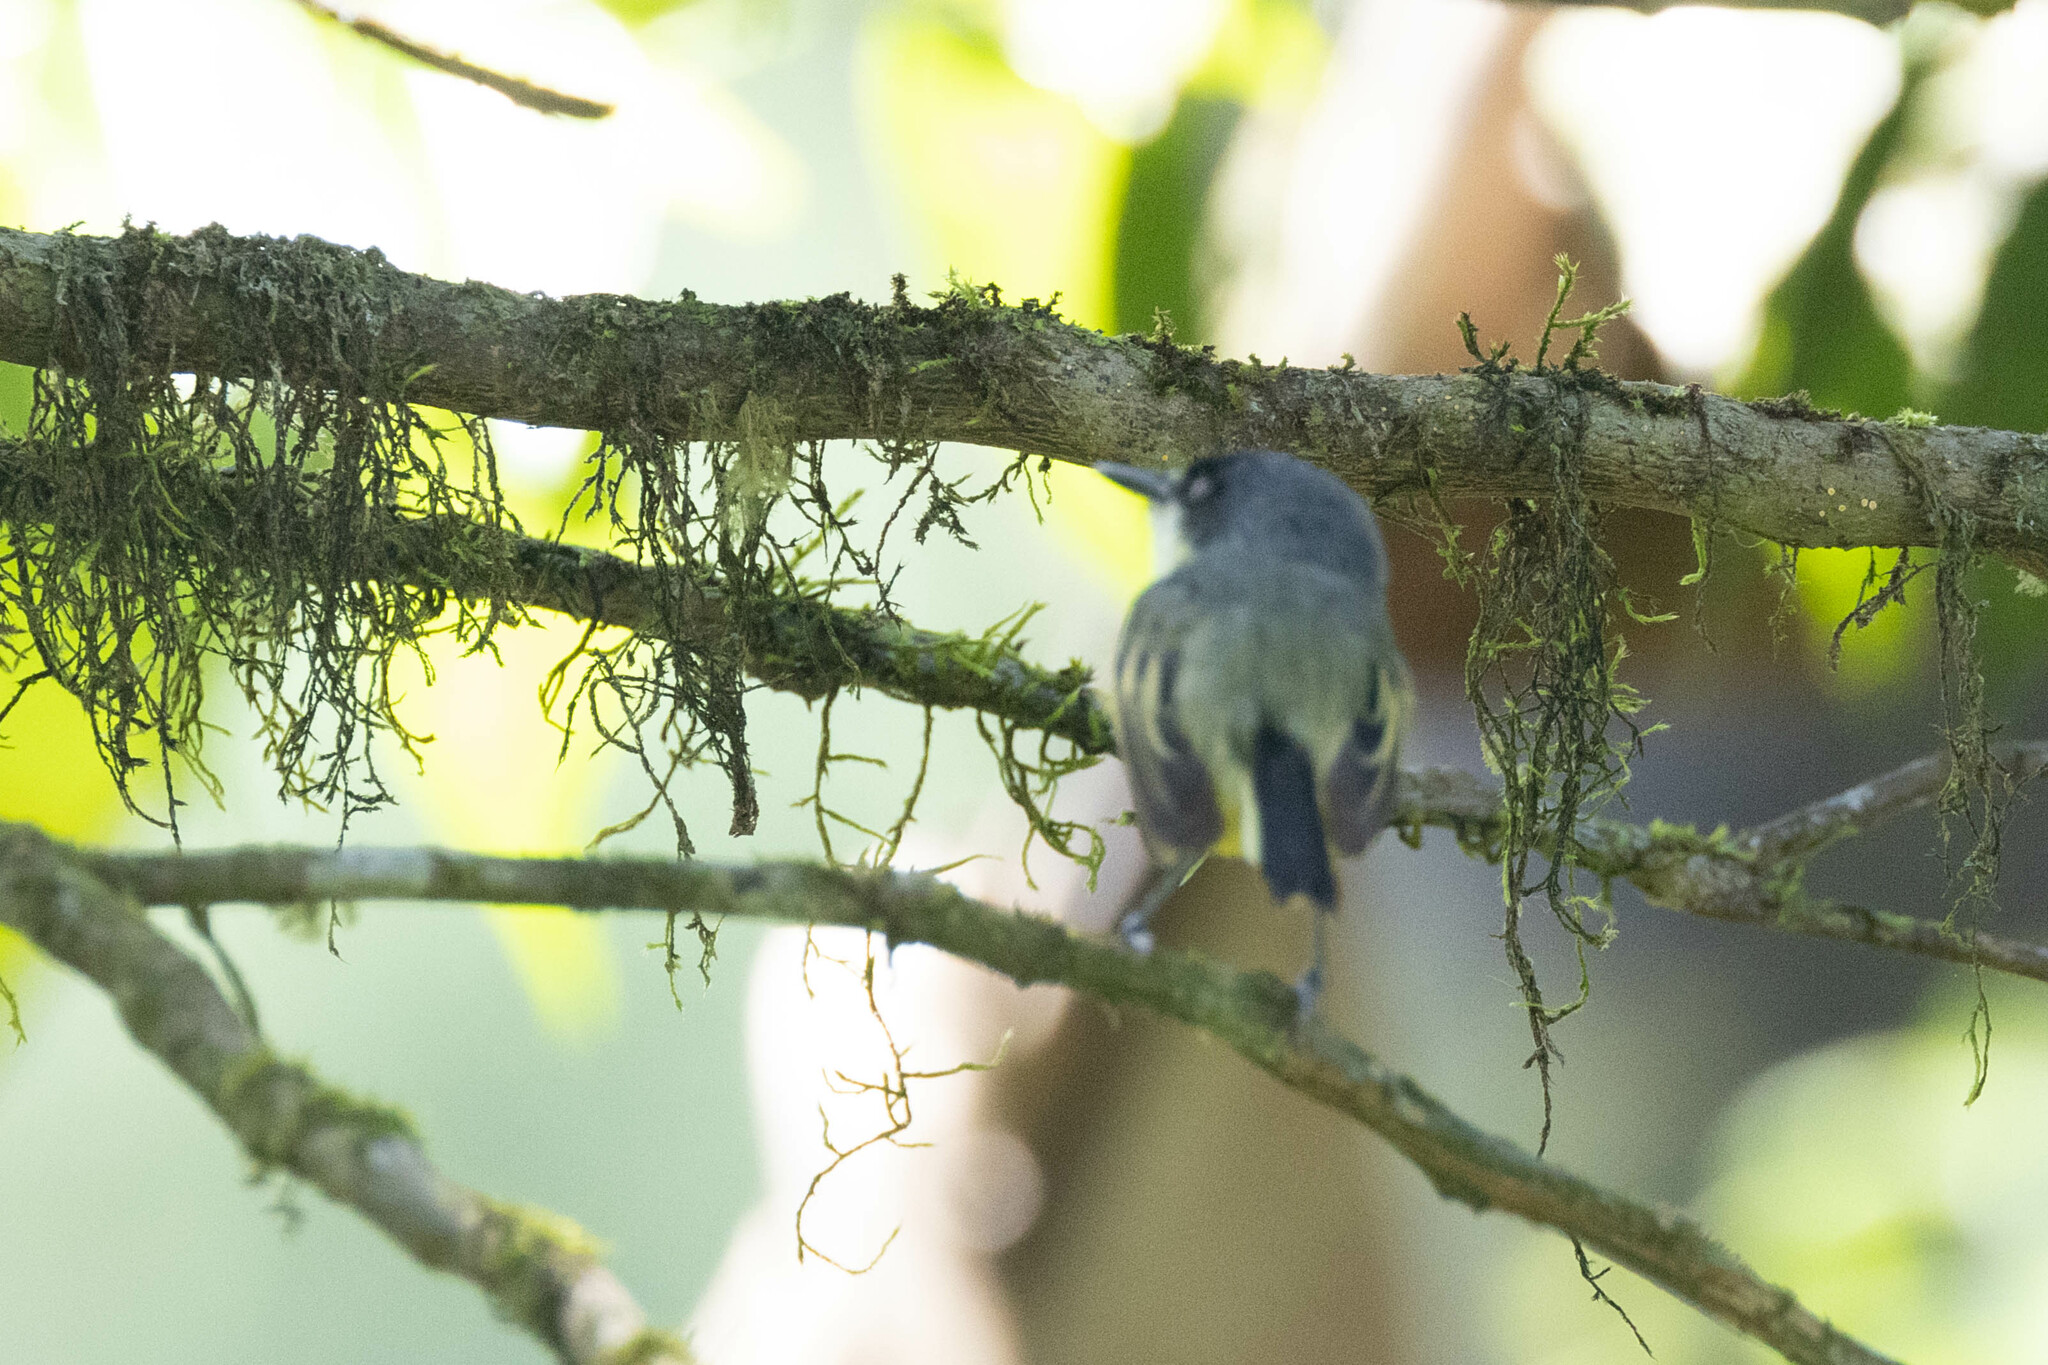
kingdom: Animalia
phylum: Chordata
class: Aves
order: Passeriformes
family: Tyrannidae
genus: Todirostrum
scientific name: Todirostrum cinereum
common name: Common tody-flycatcher
